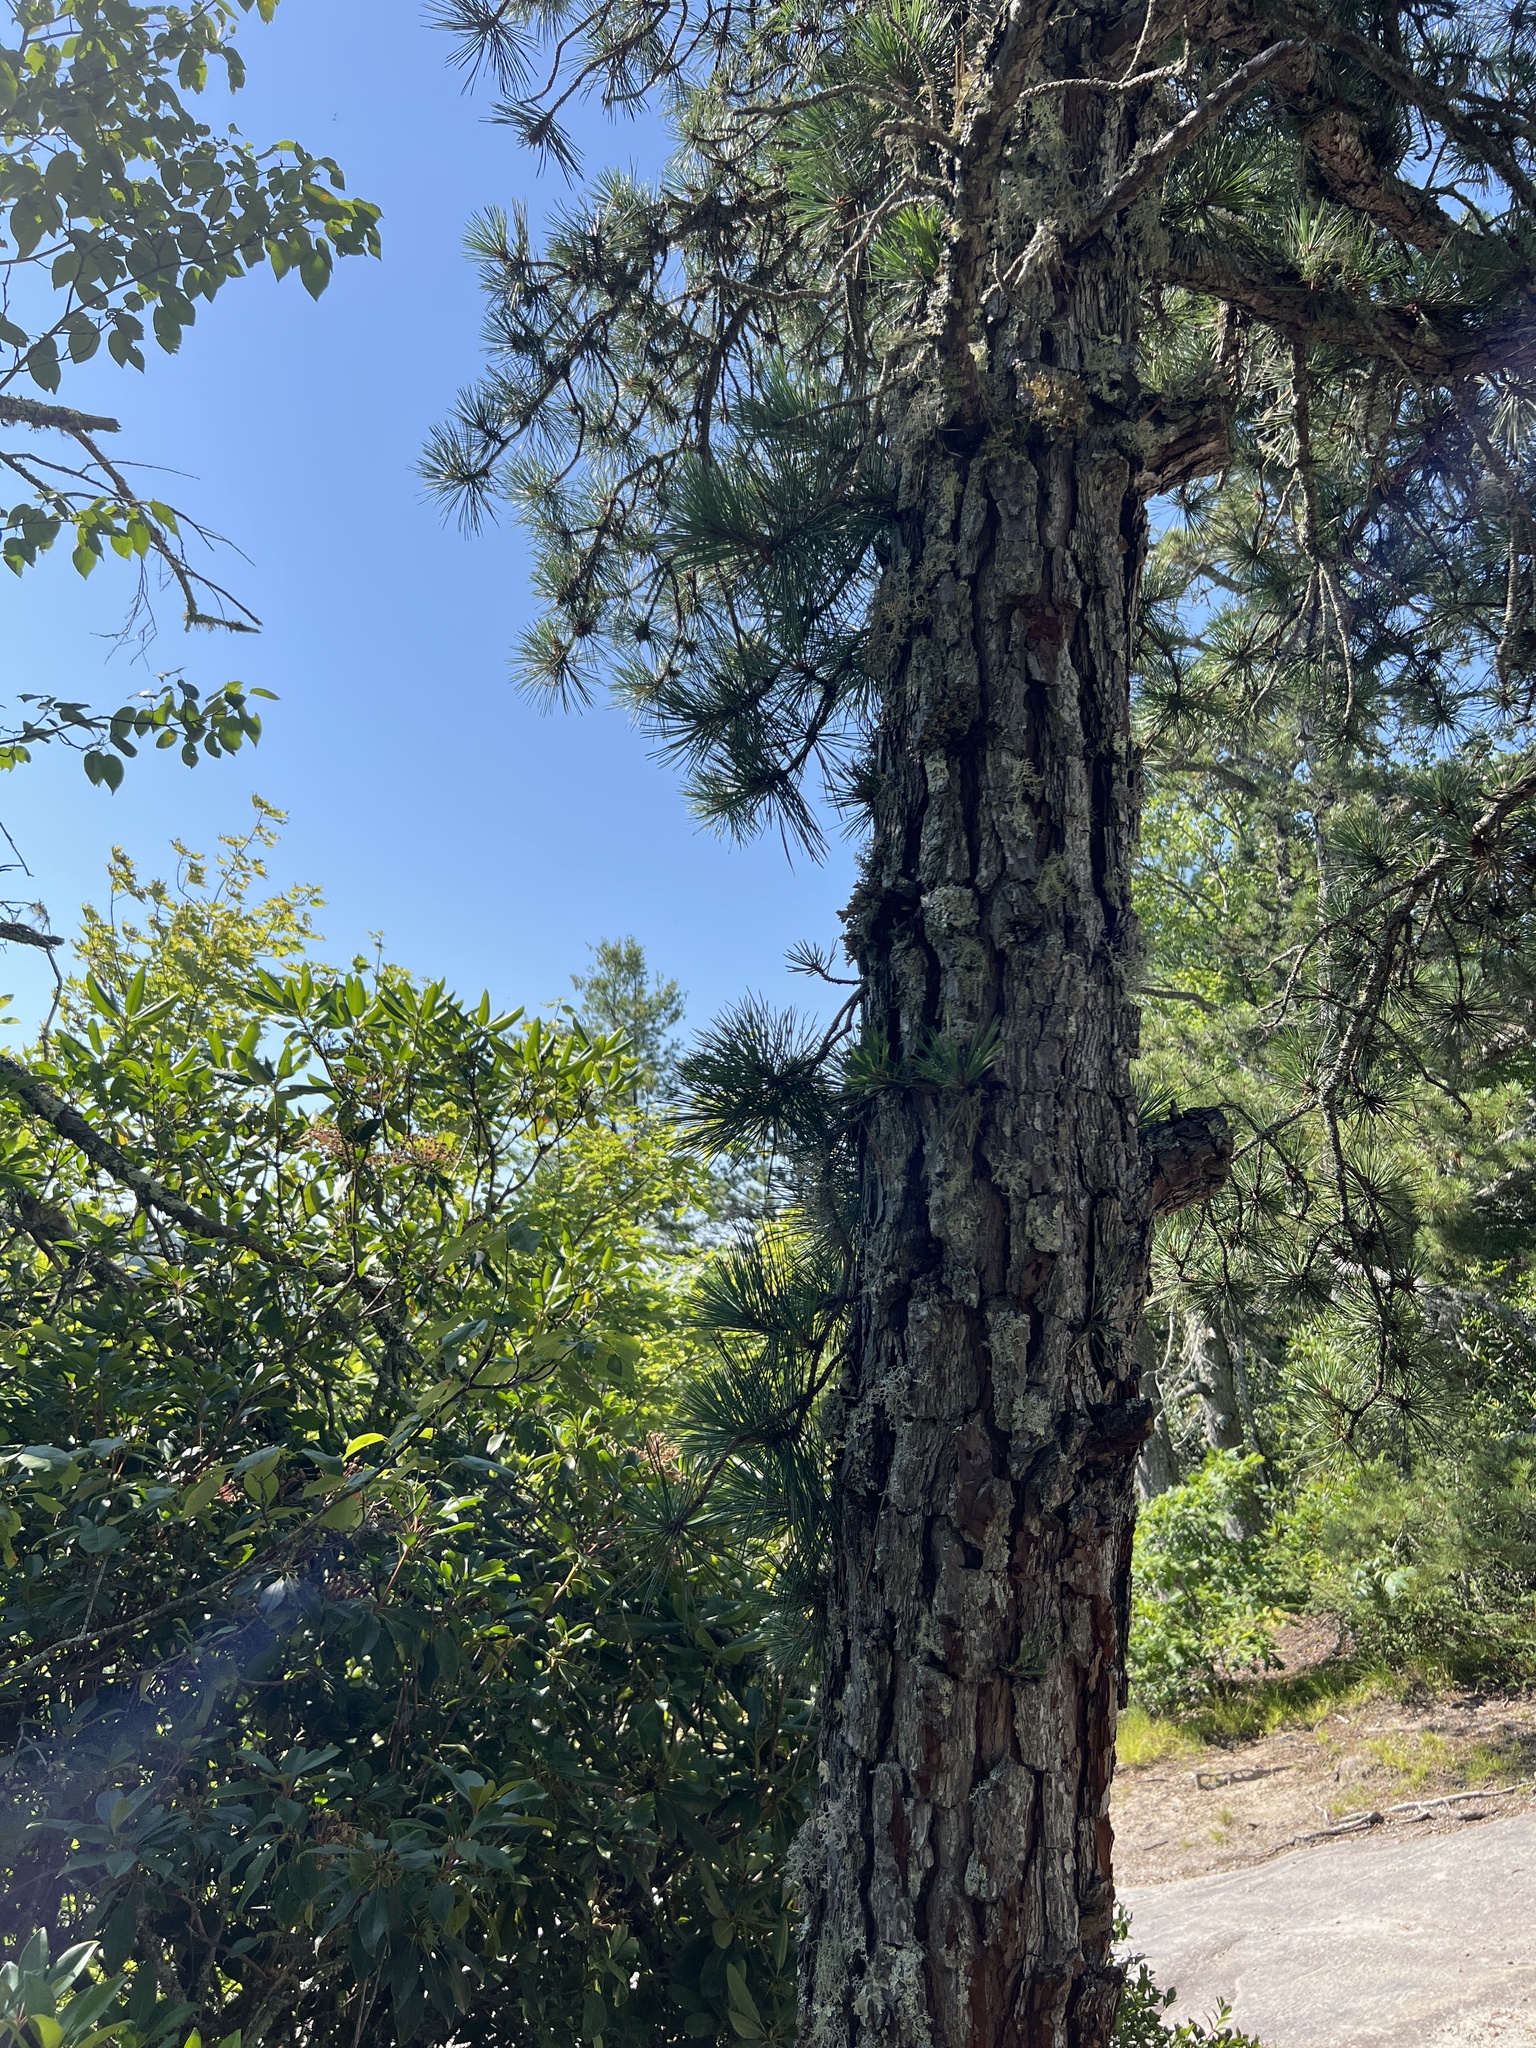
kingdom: Plantae
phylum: Tracheophyta
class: Pinopsida
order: Pinales
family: Pinaceae
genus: Pinus
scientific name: Pinus rigida
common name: Pitch pine
